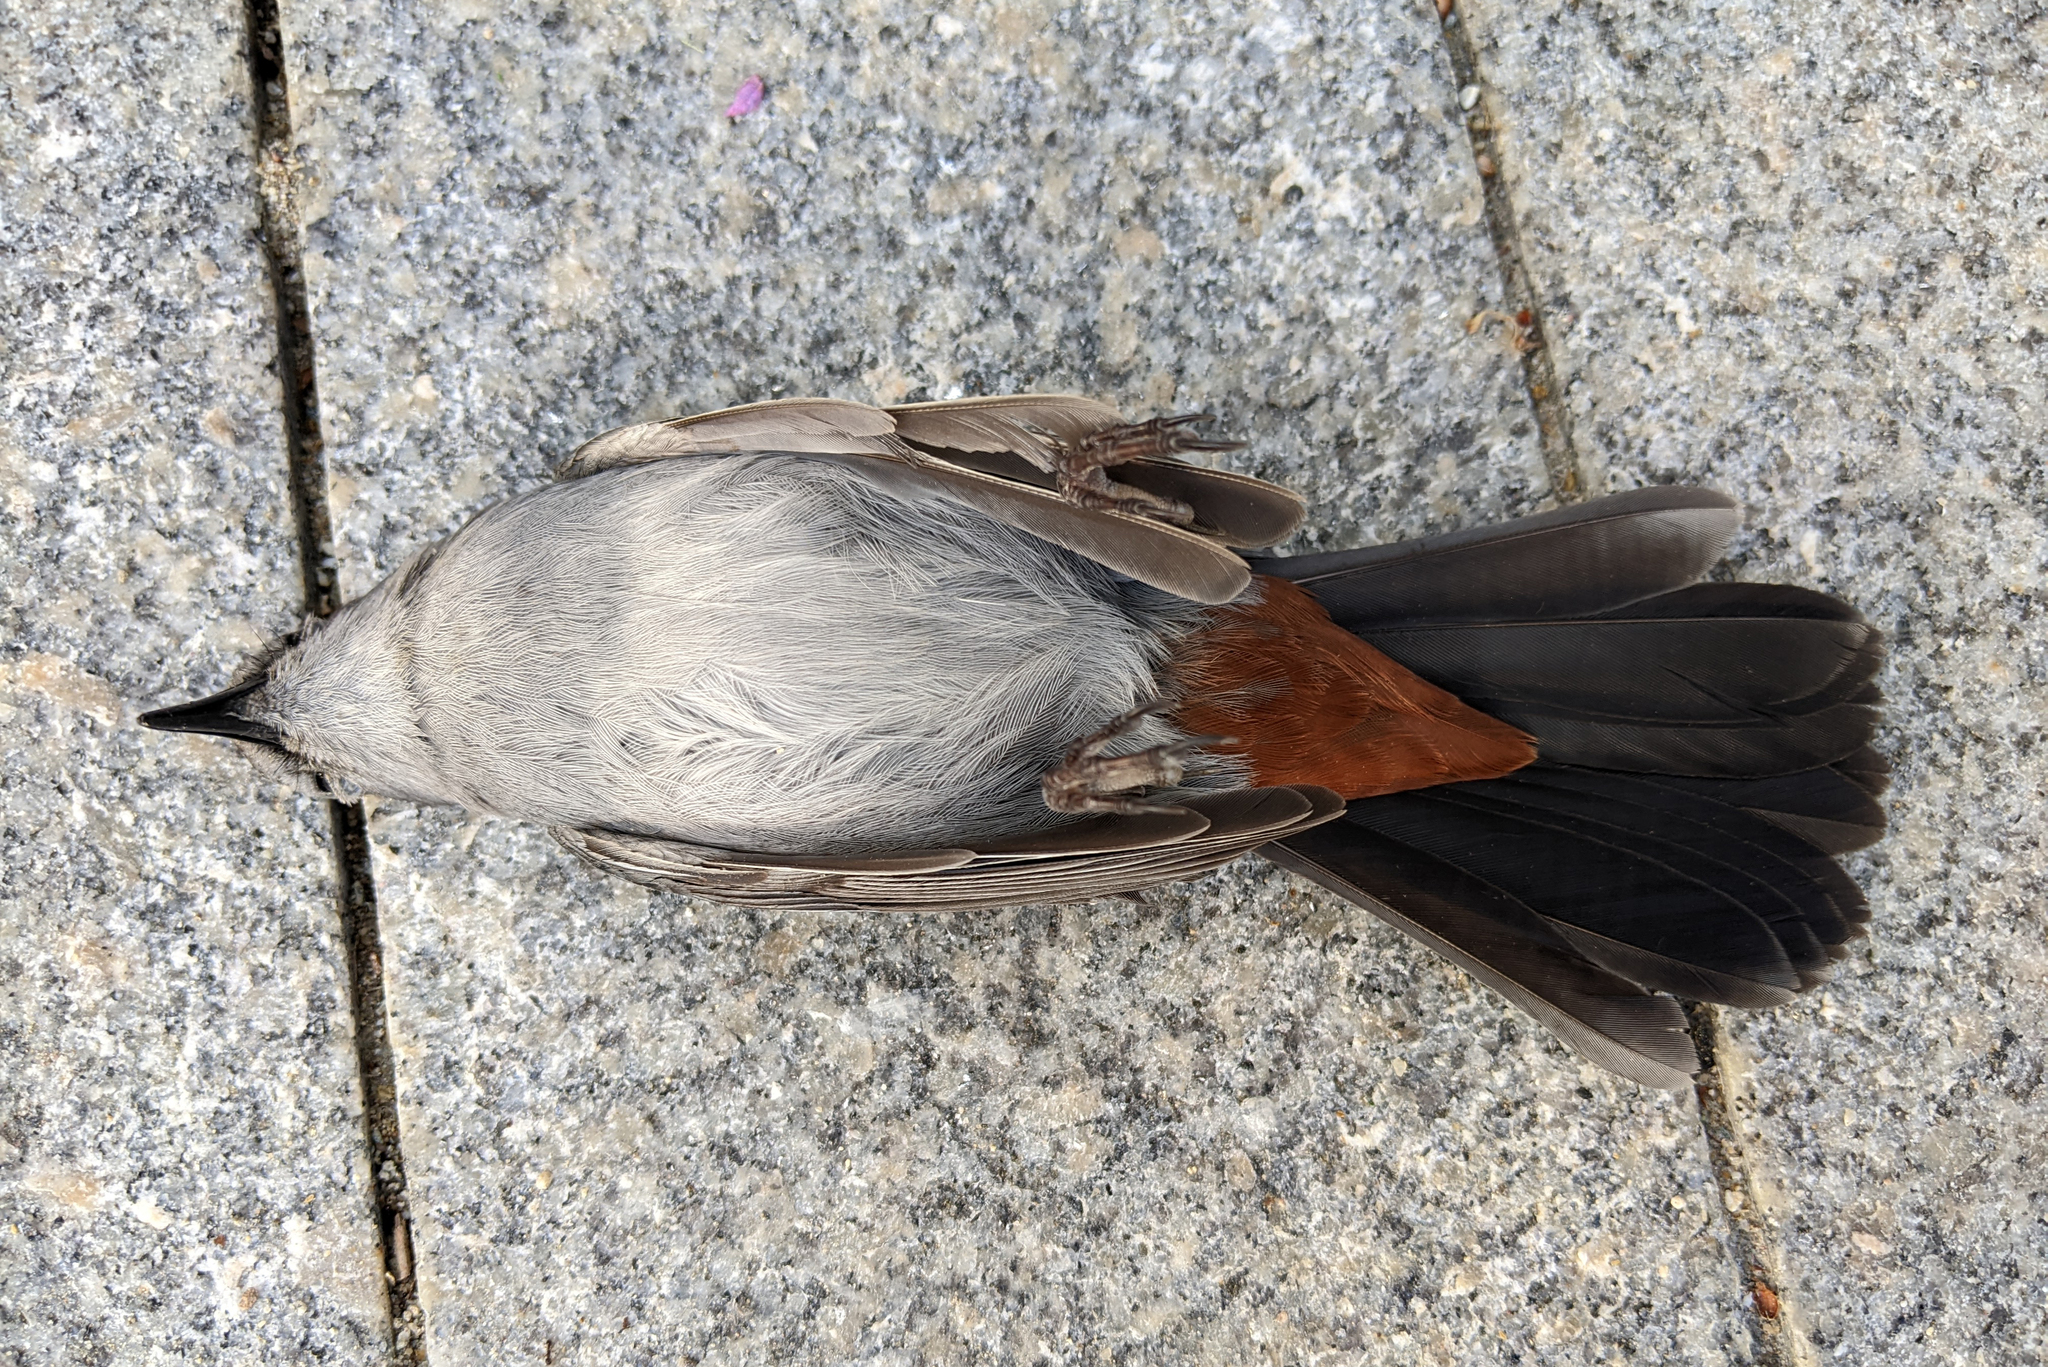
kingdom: Animalia
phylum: Chordata
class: Aves
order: Passeriformes
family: Mimidae
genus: Dumetella
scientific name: Dumetella carolinensis
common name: Gray catbird
